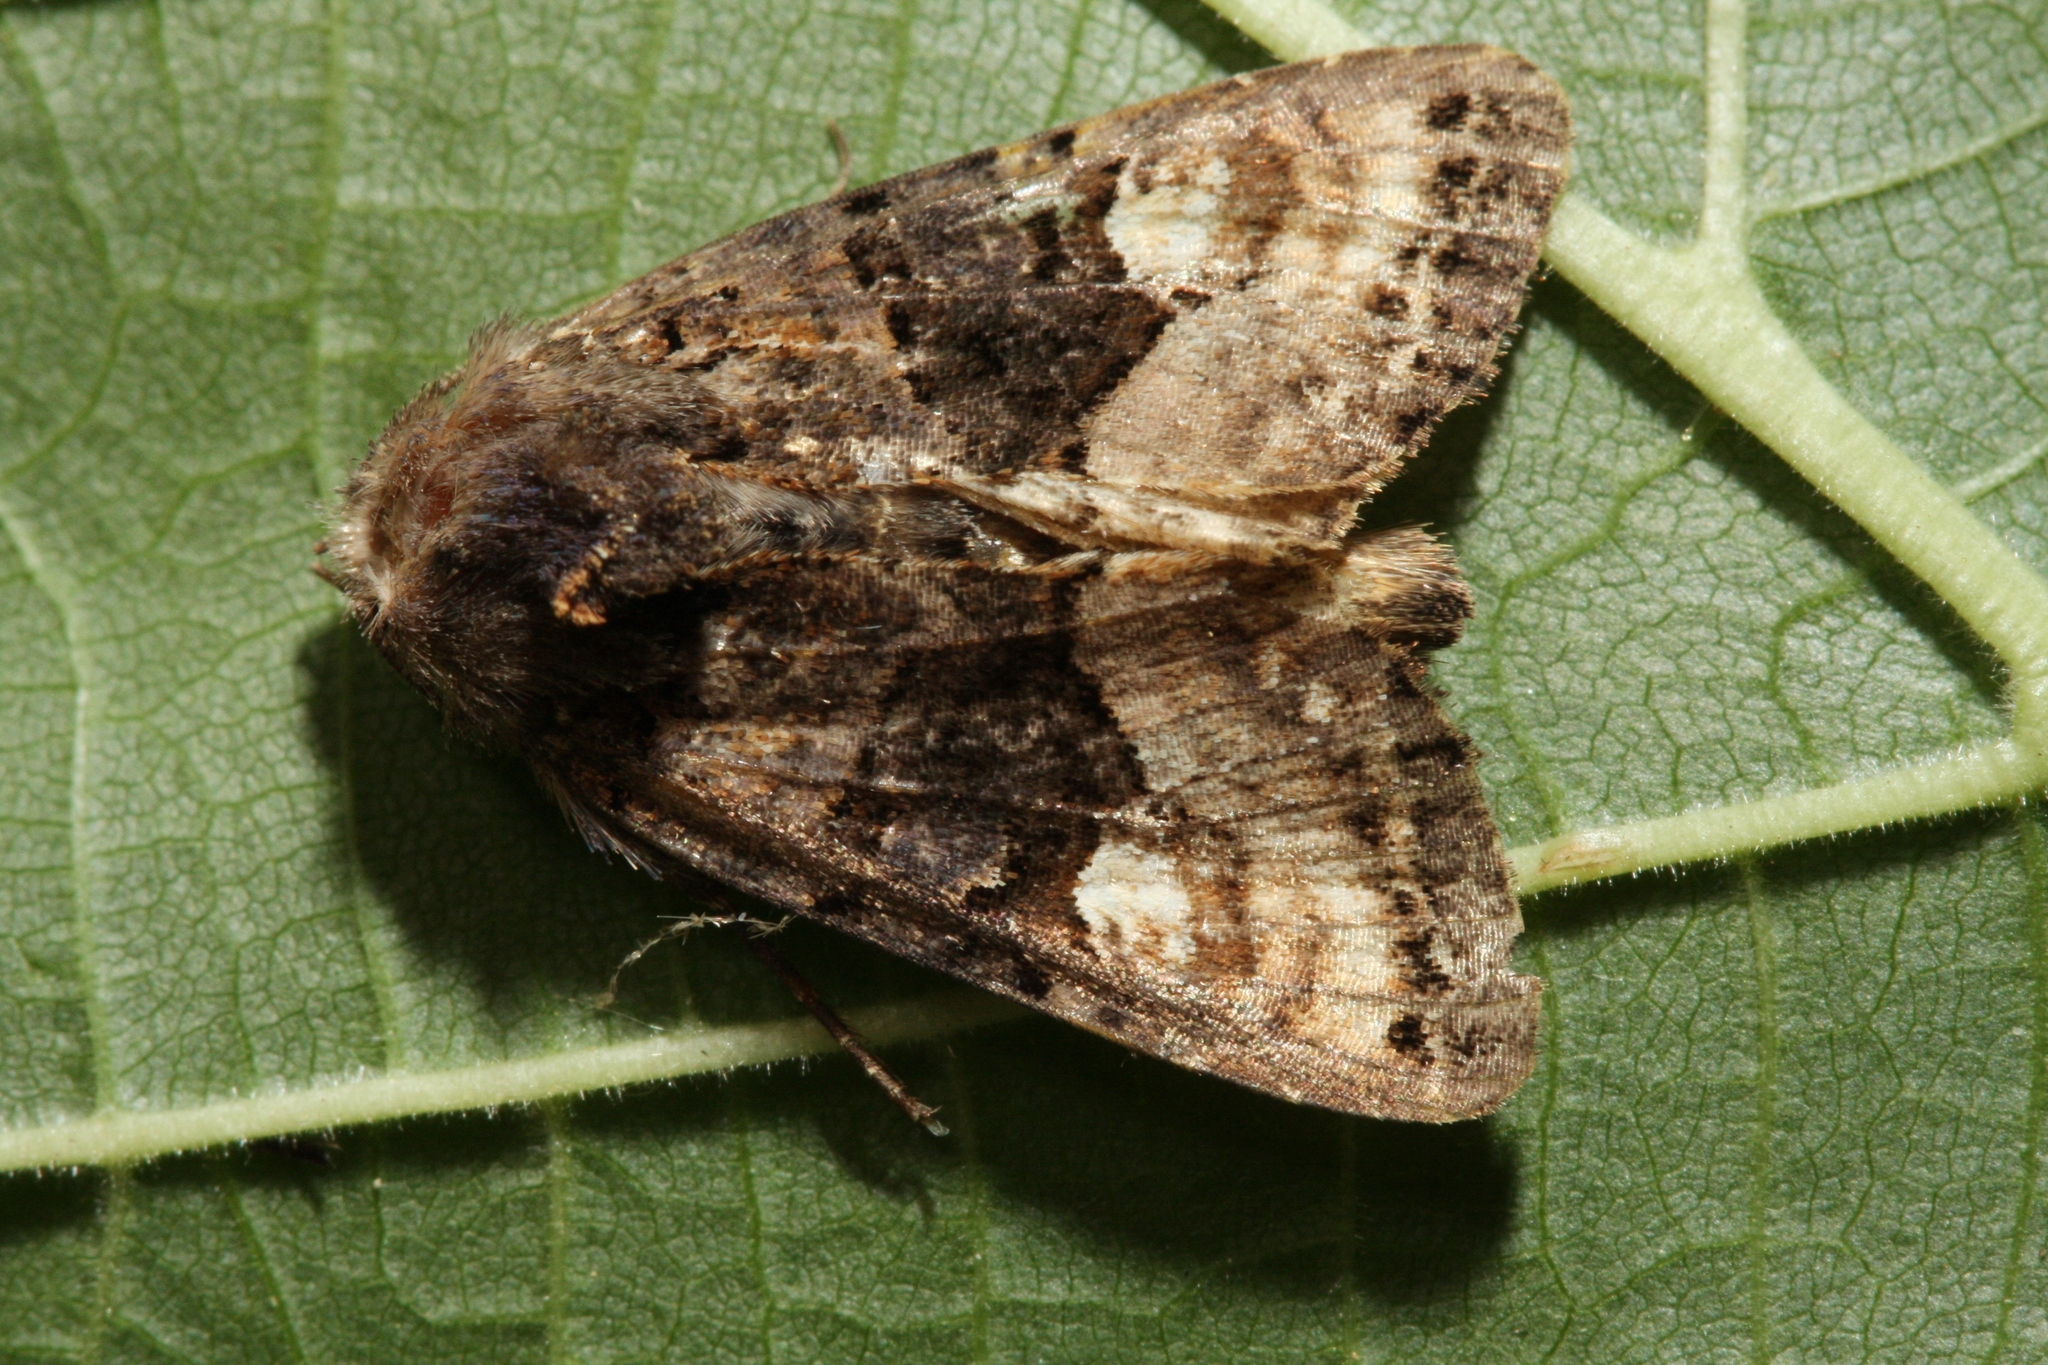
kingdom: Animalia
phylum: Arthropoda
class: Insecta
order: Lepidoptera
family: Noctuidae
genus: Euplexia
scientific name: Euplexia lucipara
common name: Small angle shades
